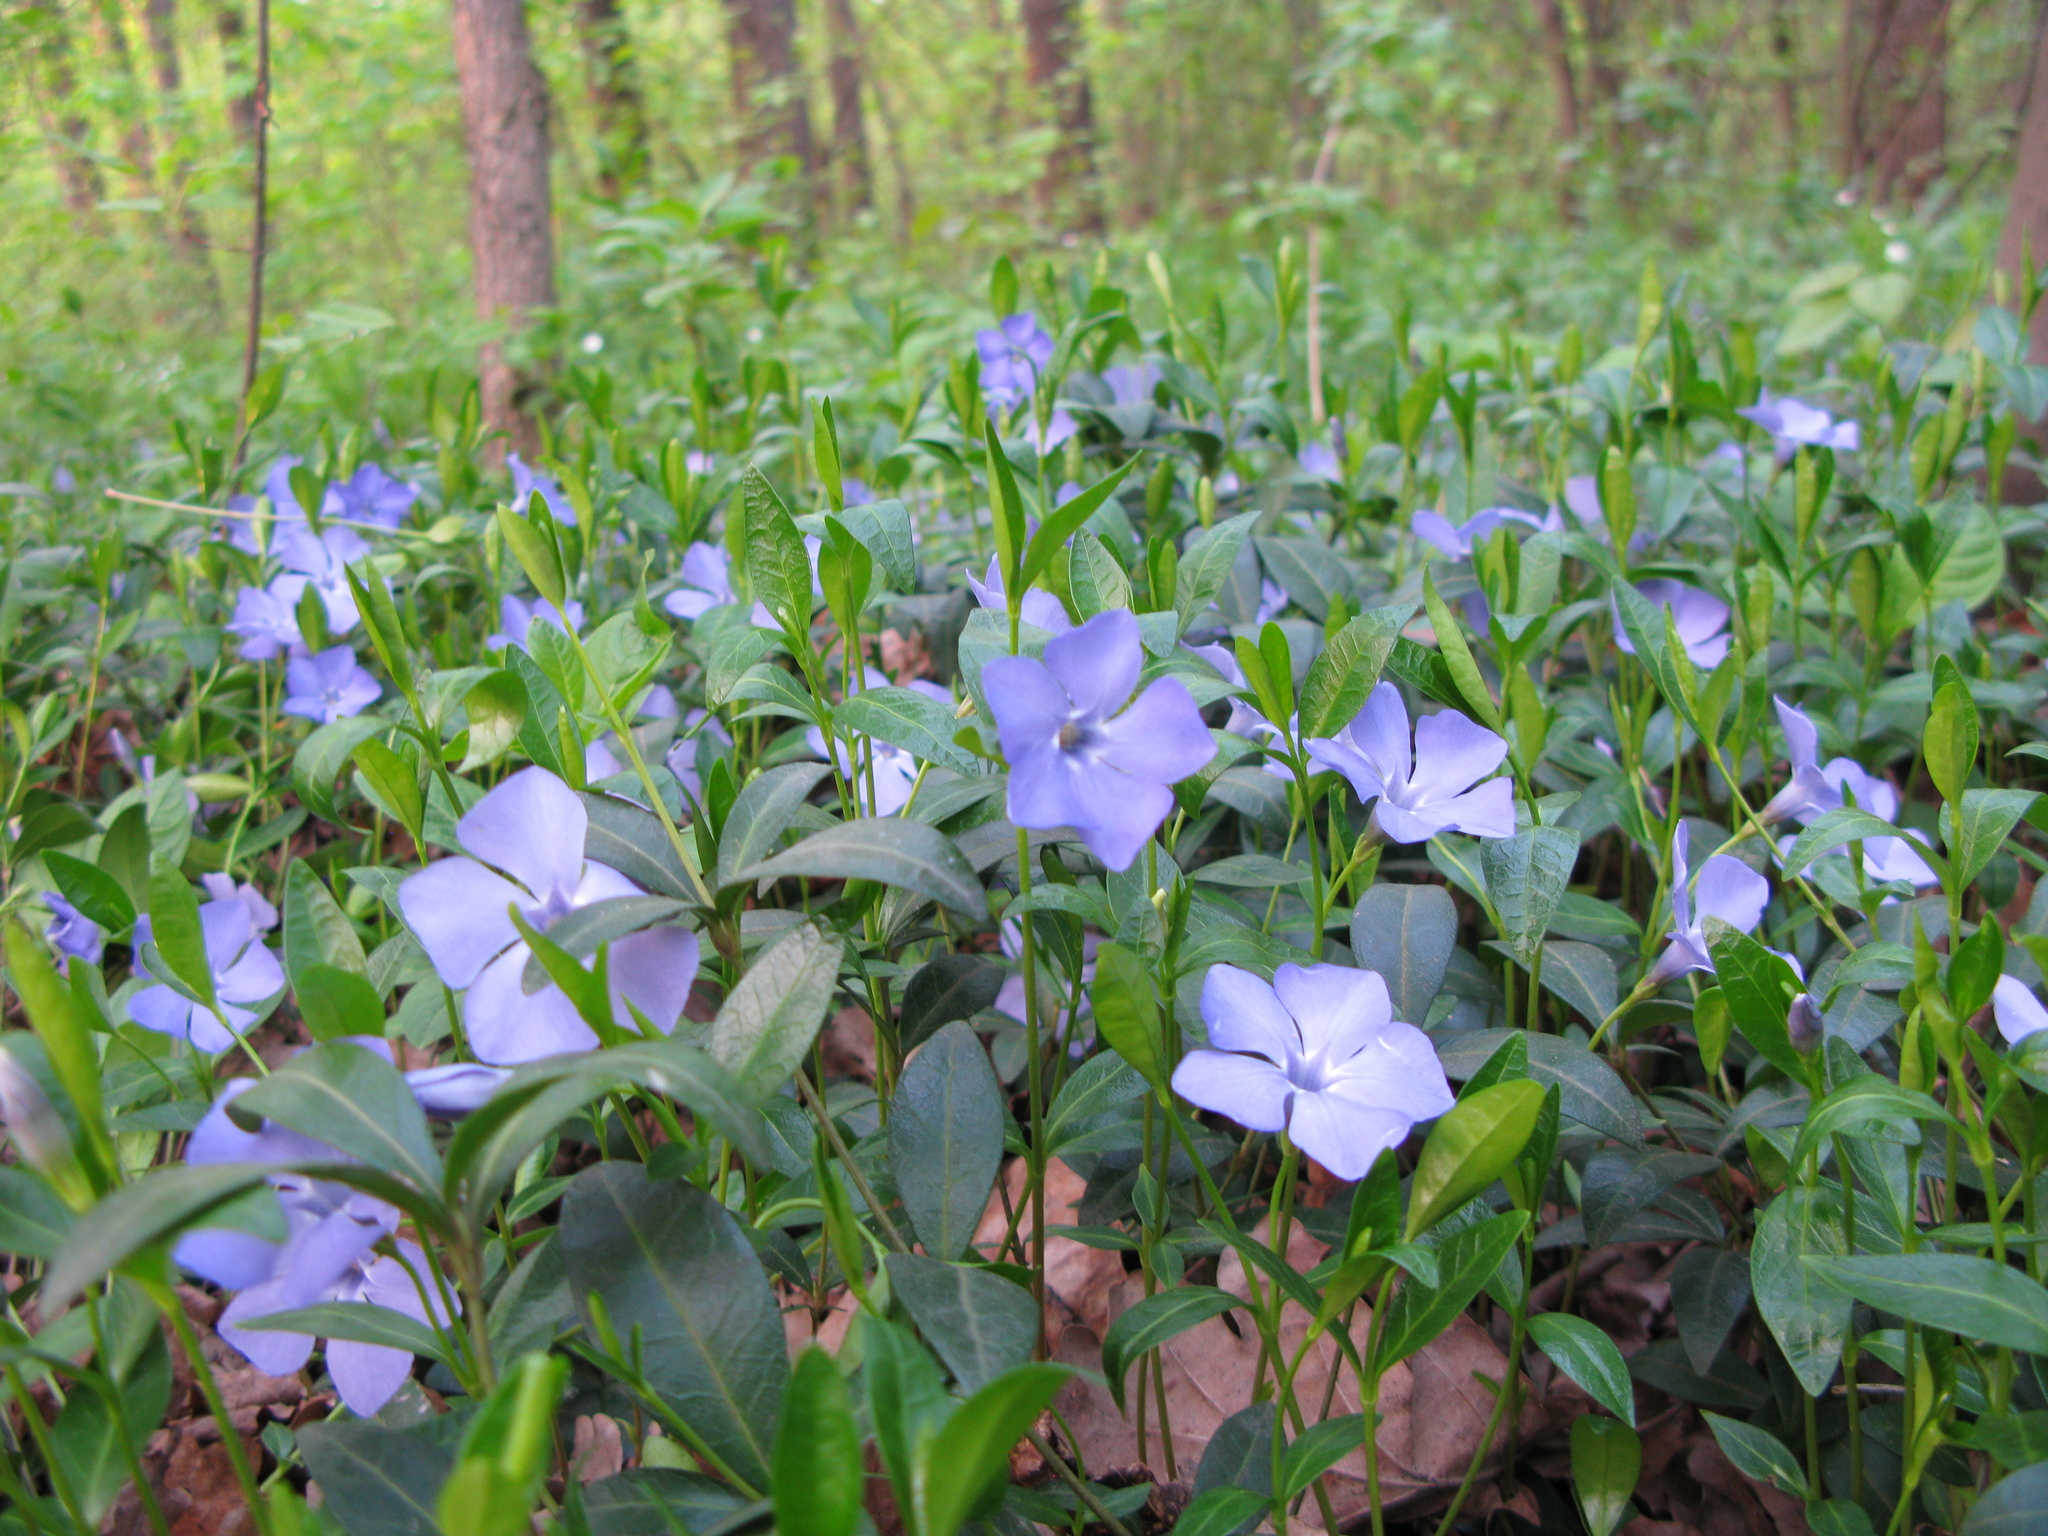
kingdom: Plantae
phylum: Tracheophyta
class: Magnoliopsida
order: Gentianales
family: Apocynaceae
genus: Vinca
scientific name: Vinca minor
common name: Lesser periwinkle
